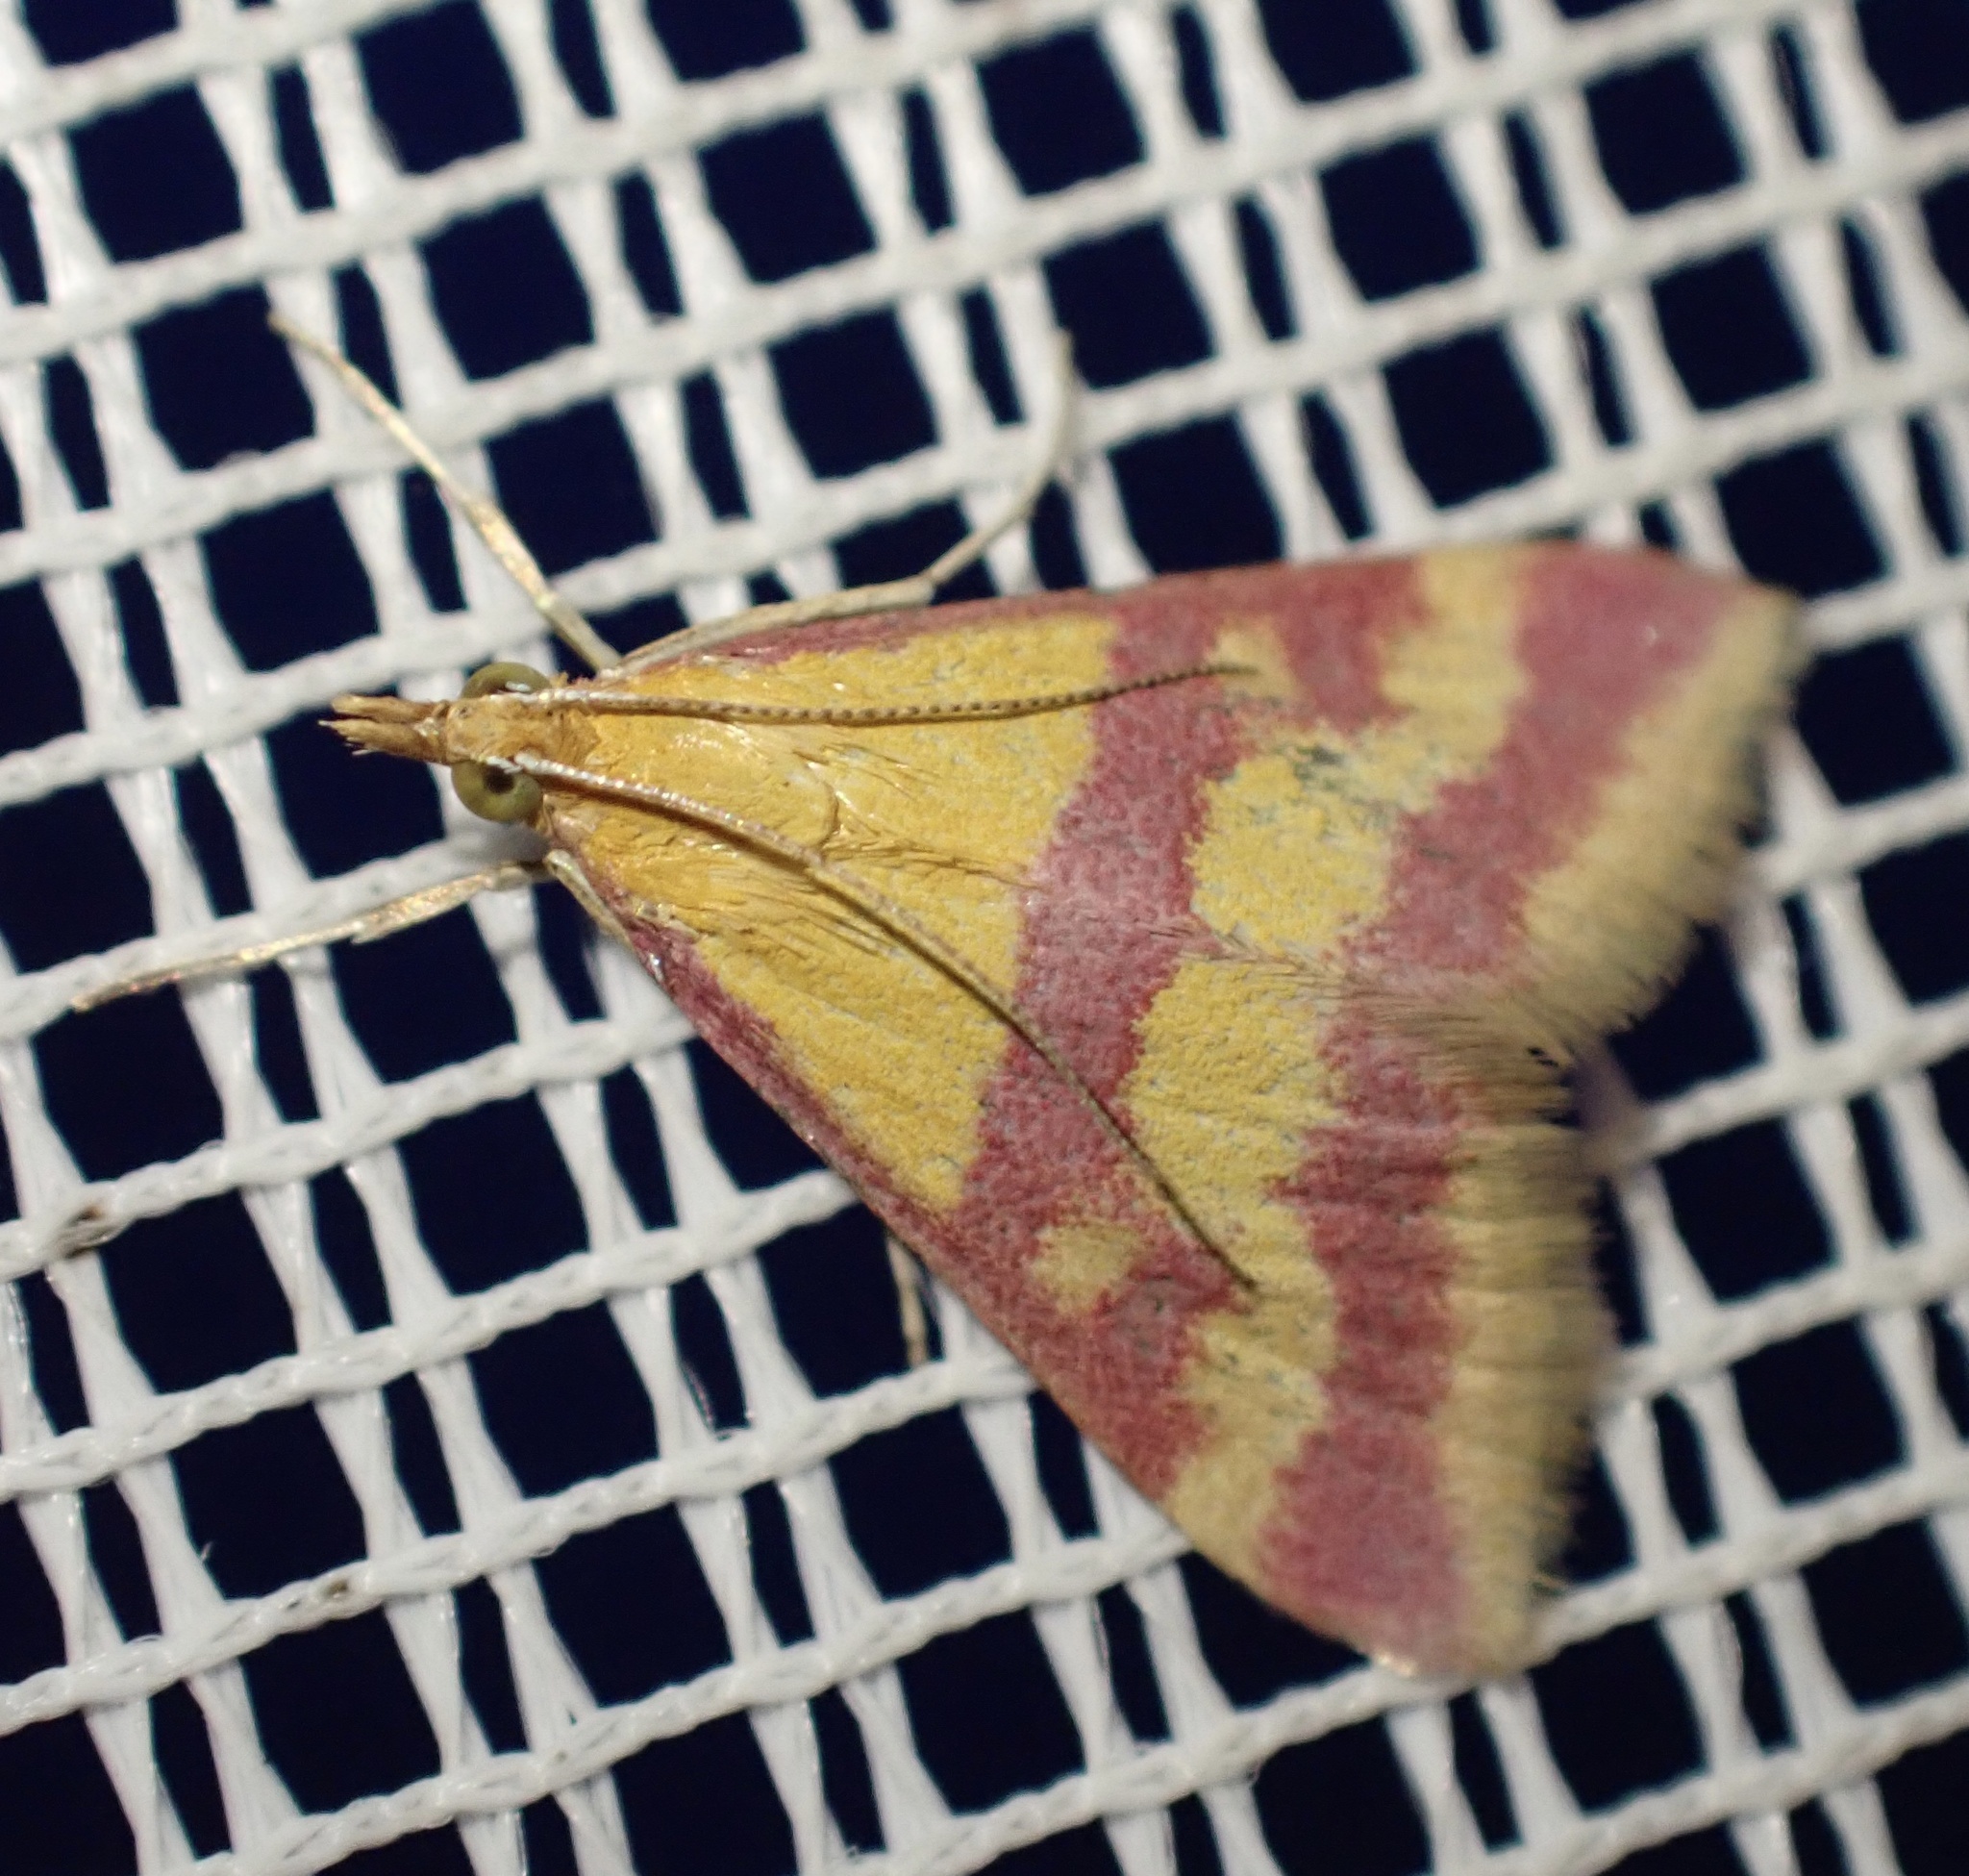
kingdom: Animalia
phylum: Arthropoda
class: Insecta
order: Lepidoptera
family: Crambidae
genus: Pyrausta
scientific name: Pyrausta sanguinalis
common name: Scarce crimson and gold
